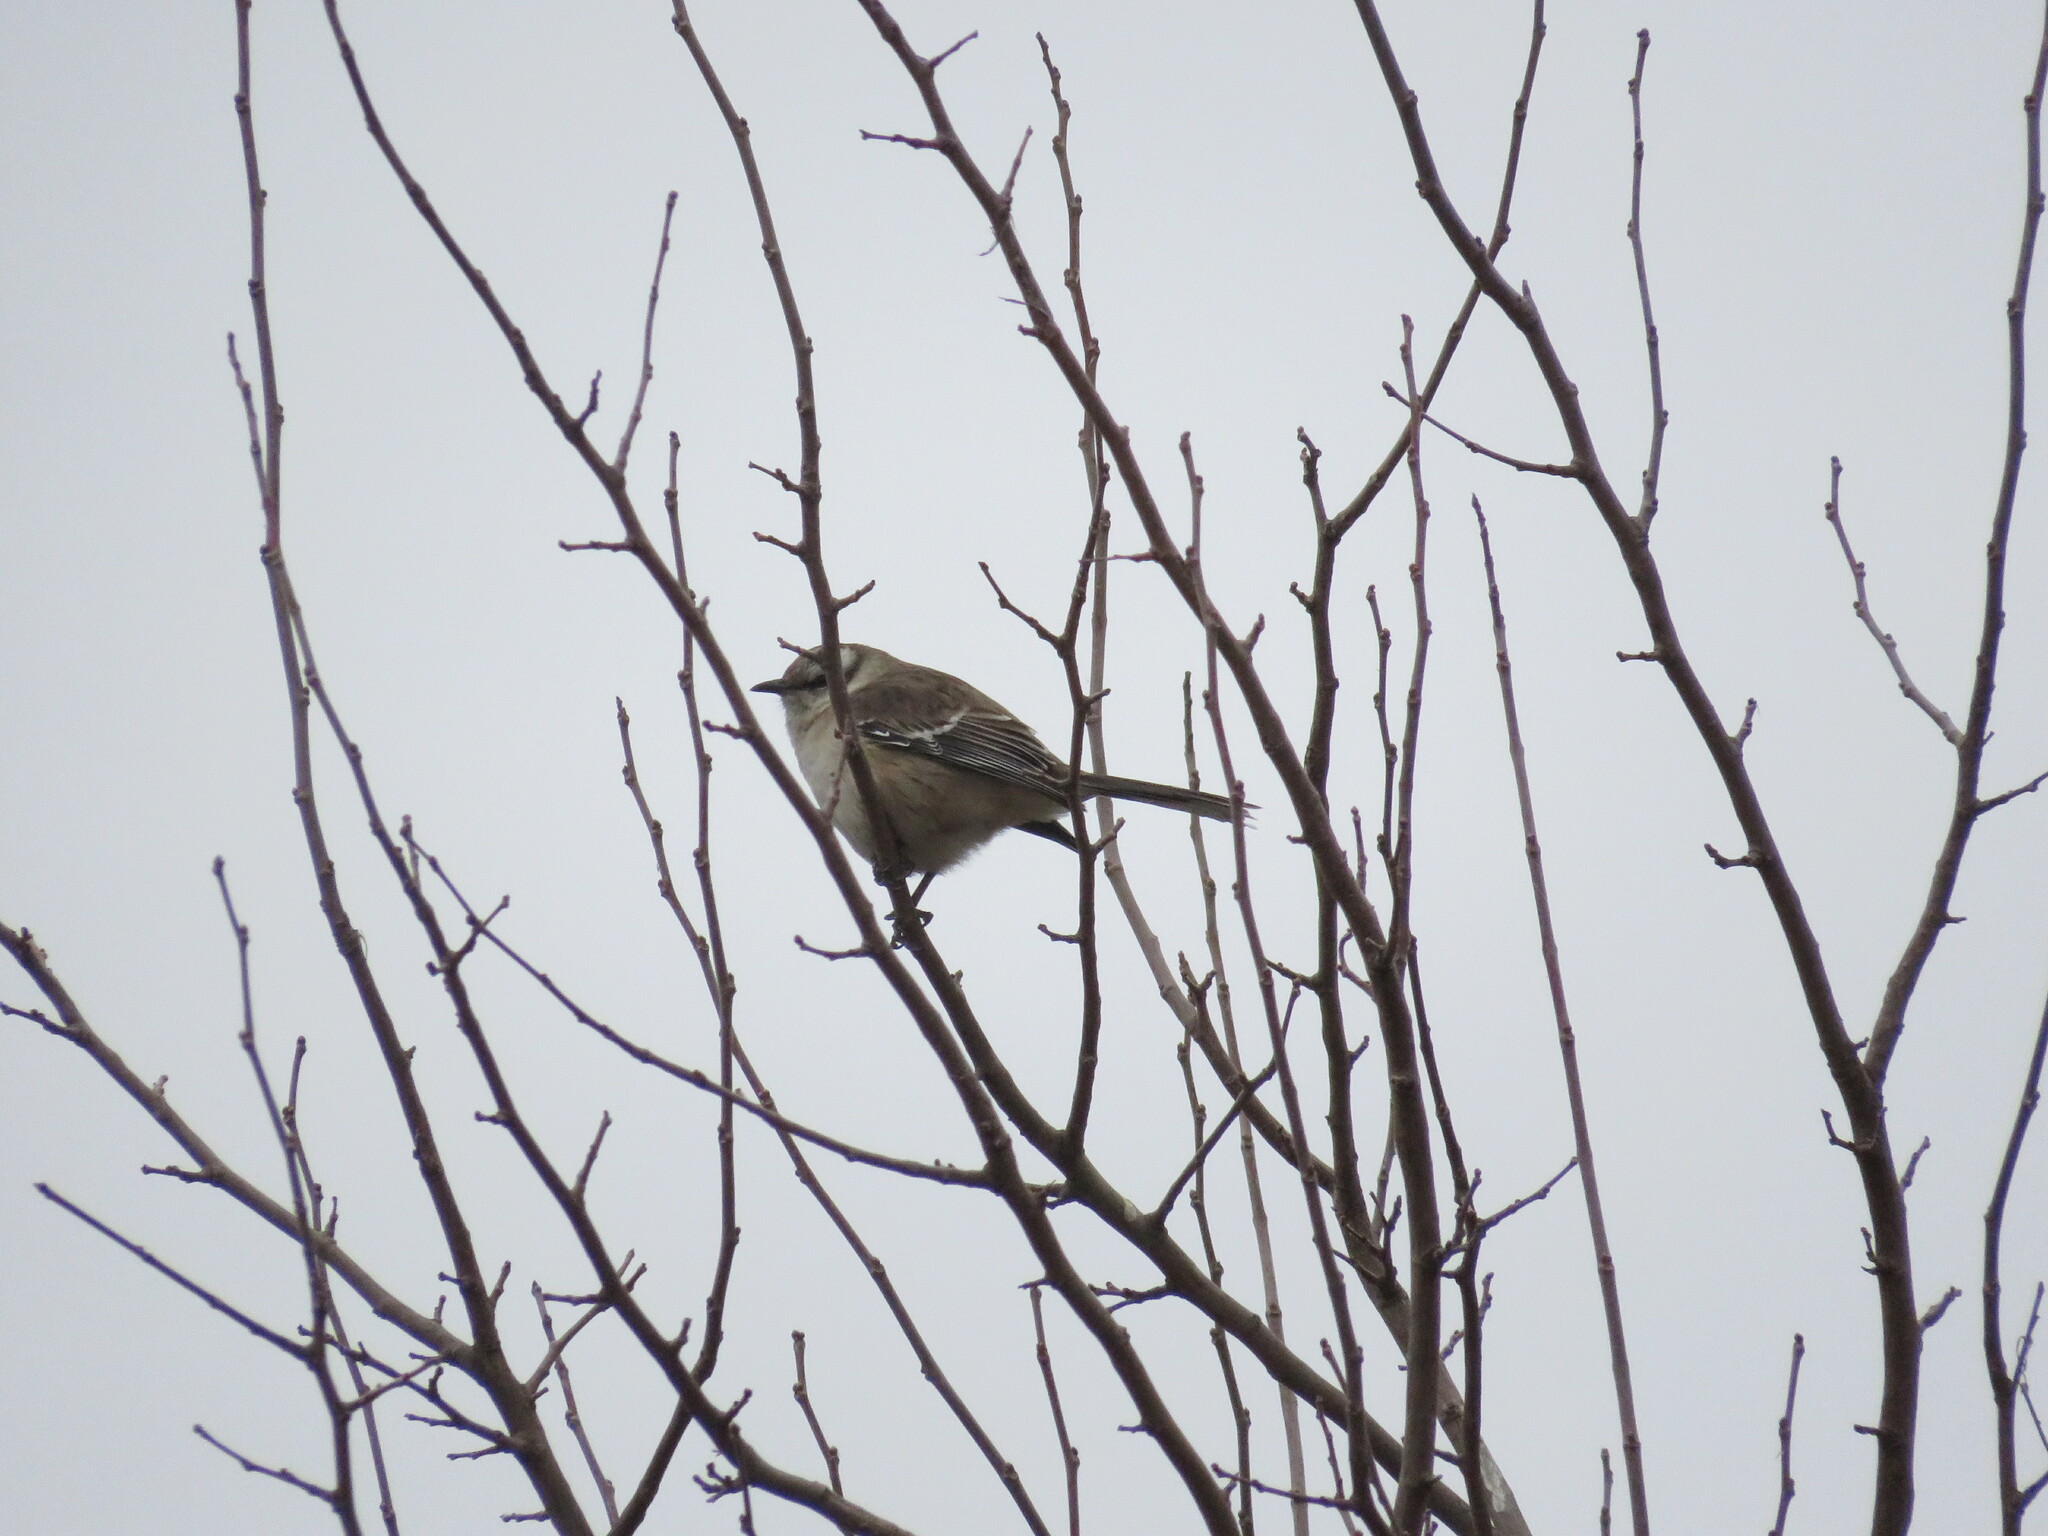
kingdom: Animalia
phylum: Chordata
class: Aves
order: Passeriformes
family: Mimidae
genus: Mimus
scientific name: Mimus saturninus
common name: Chalk-browed mockingbird
